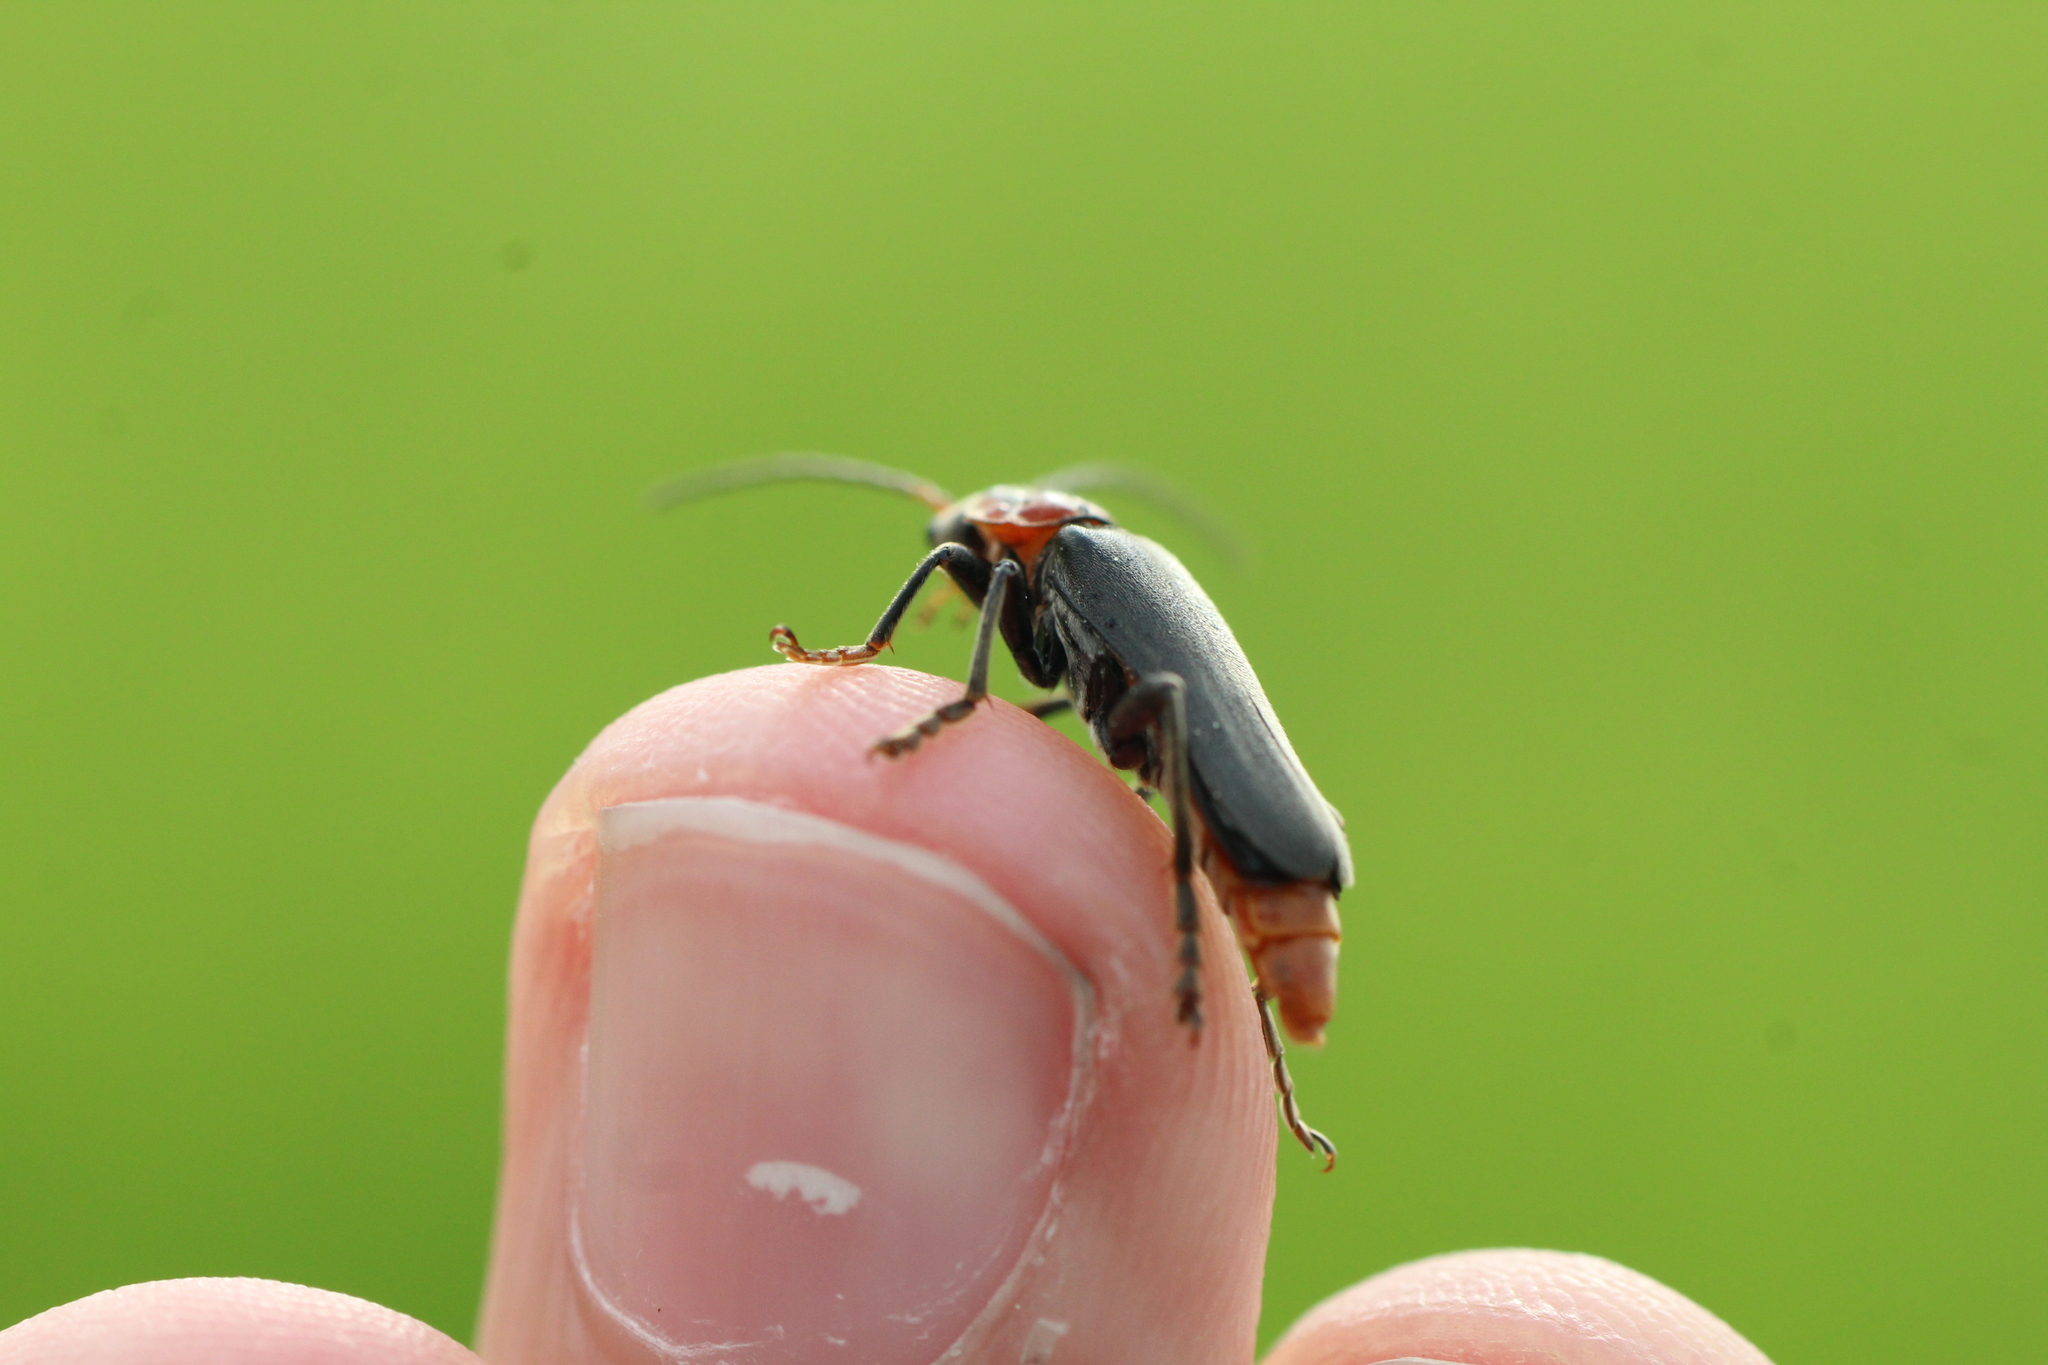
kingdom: Animalia
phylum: Arthropoda
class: Insecta
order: Coleoptera
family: Cantharidae
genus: Cantharis
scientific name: Cantharis fusca
